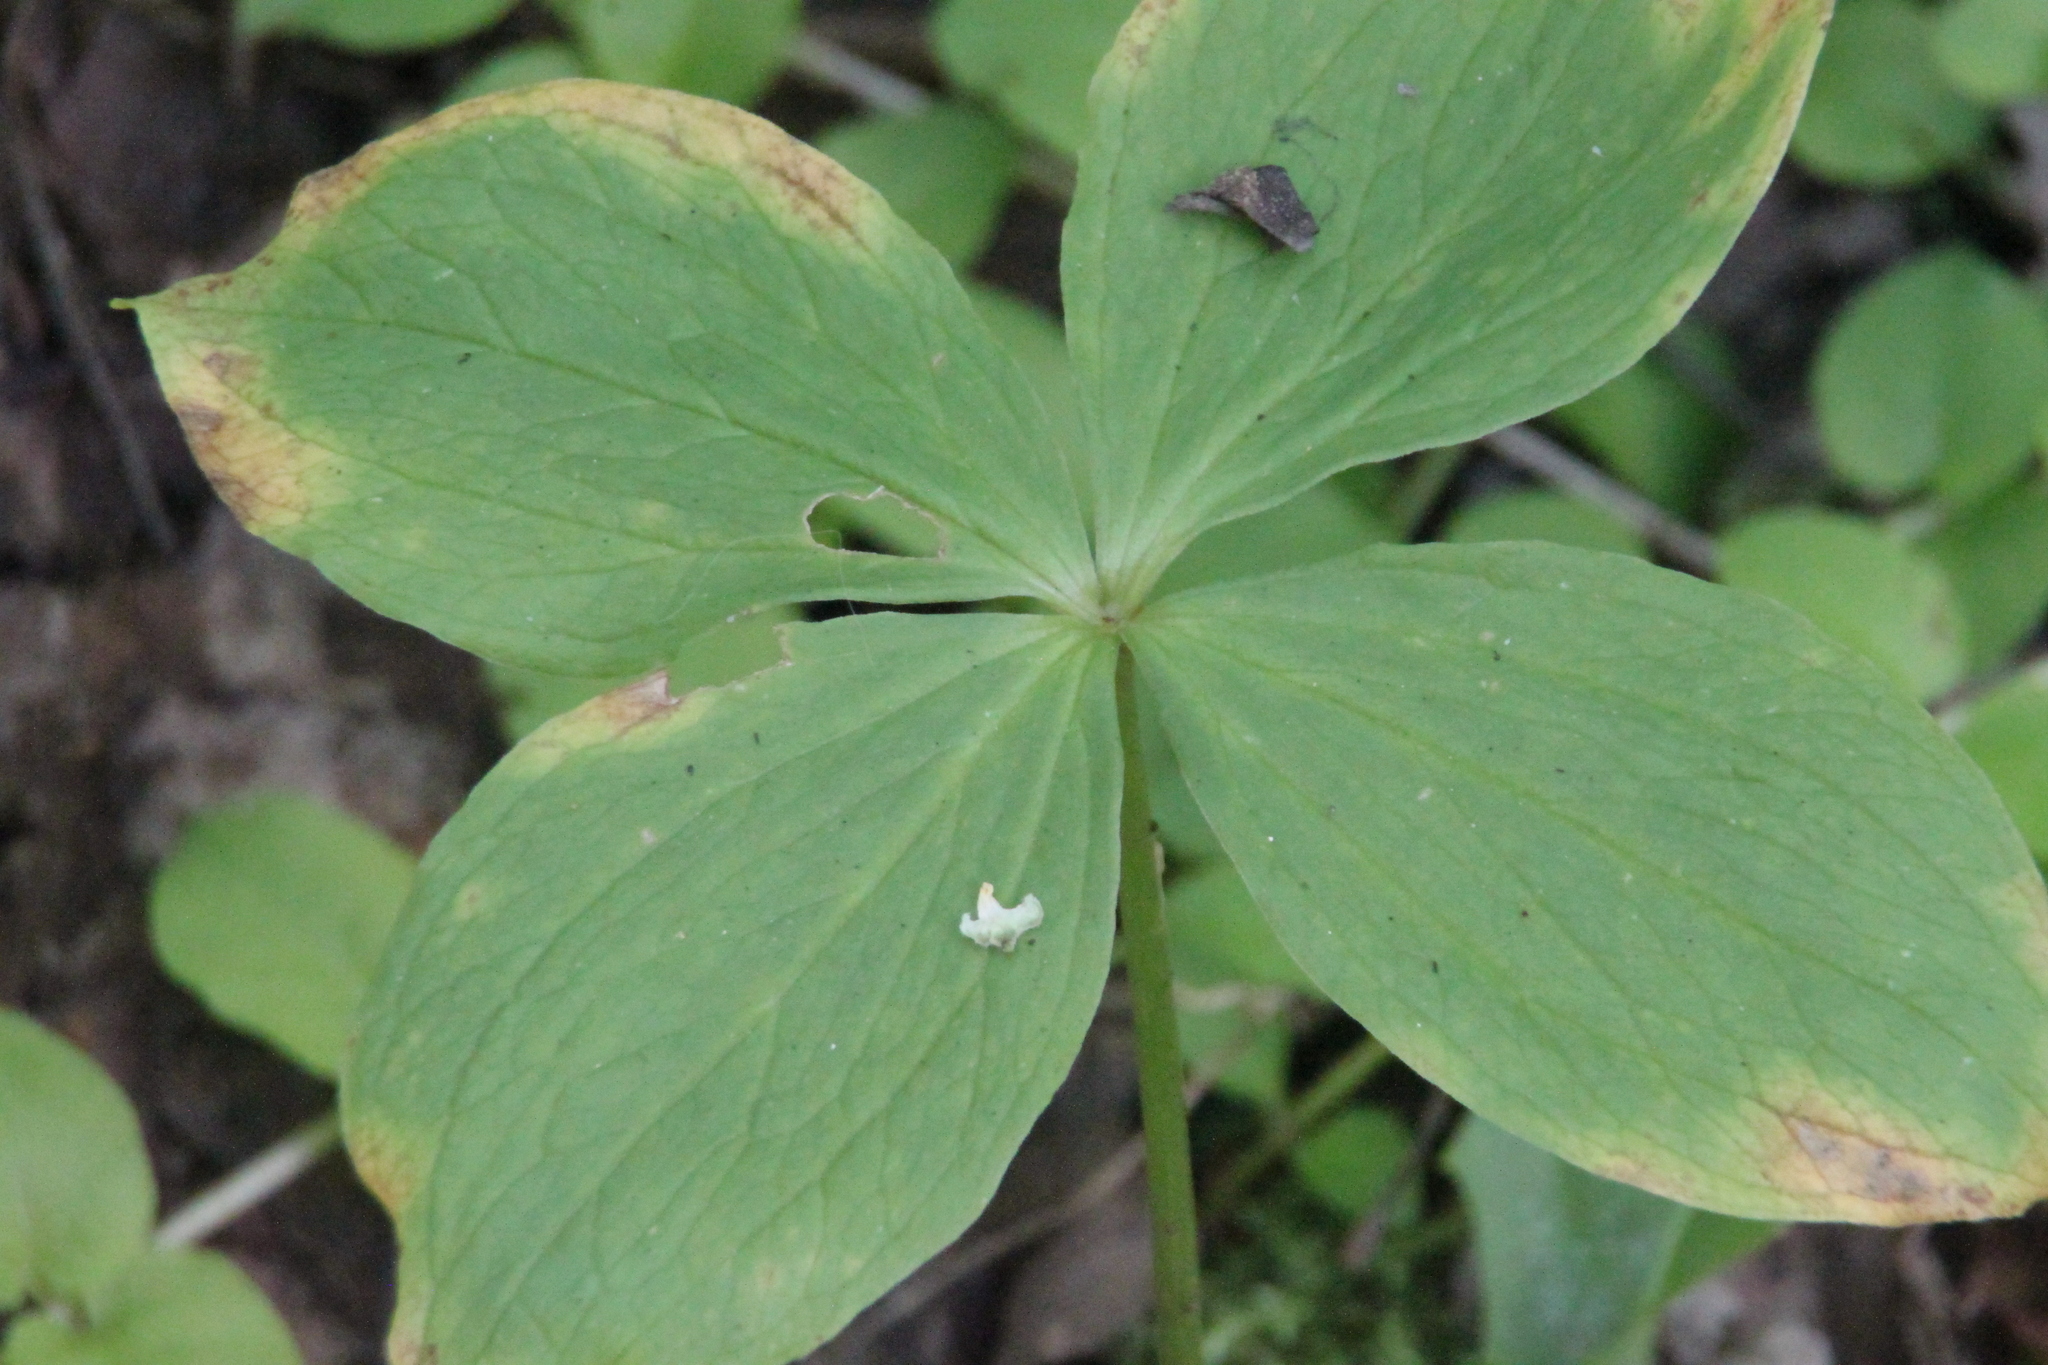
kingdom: Plantae
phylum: Tracheophyta
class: Liliopsida
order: Liliales
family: Melanthiaceae
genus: Paris
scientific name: Paris quadrifolia
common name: Herb-paris
